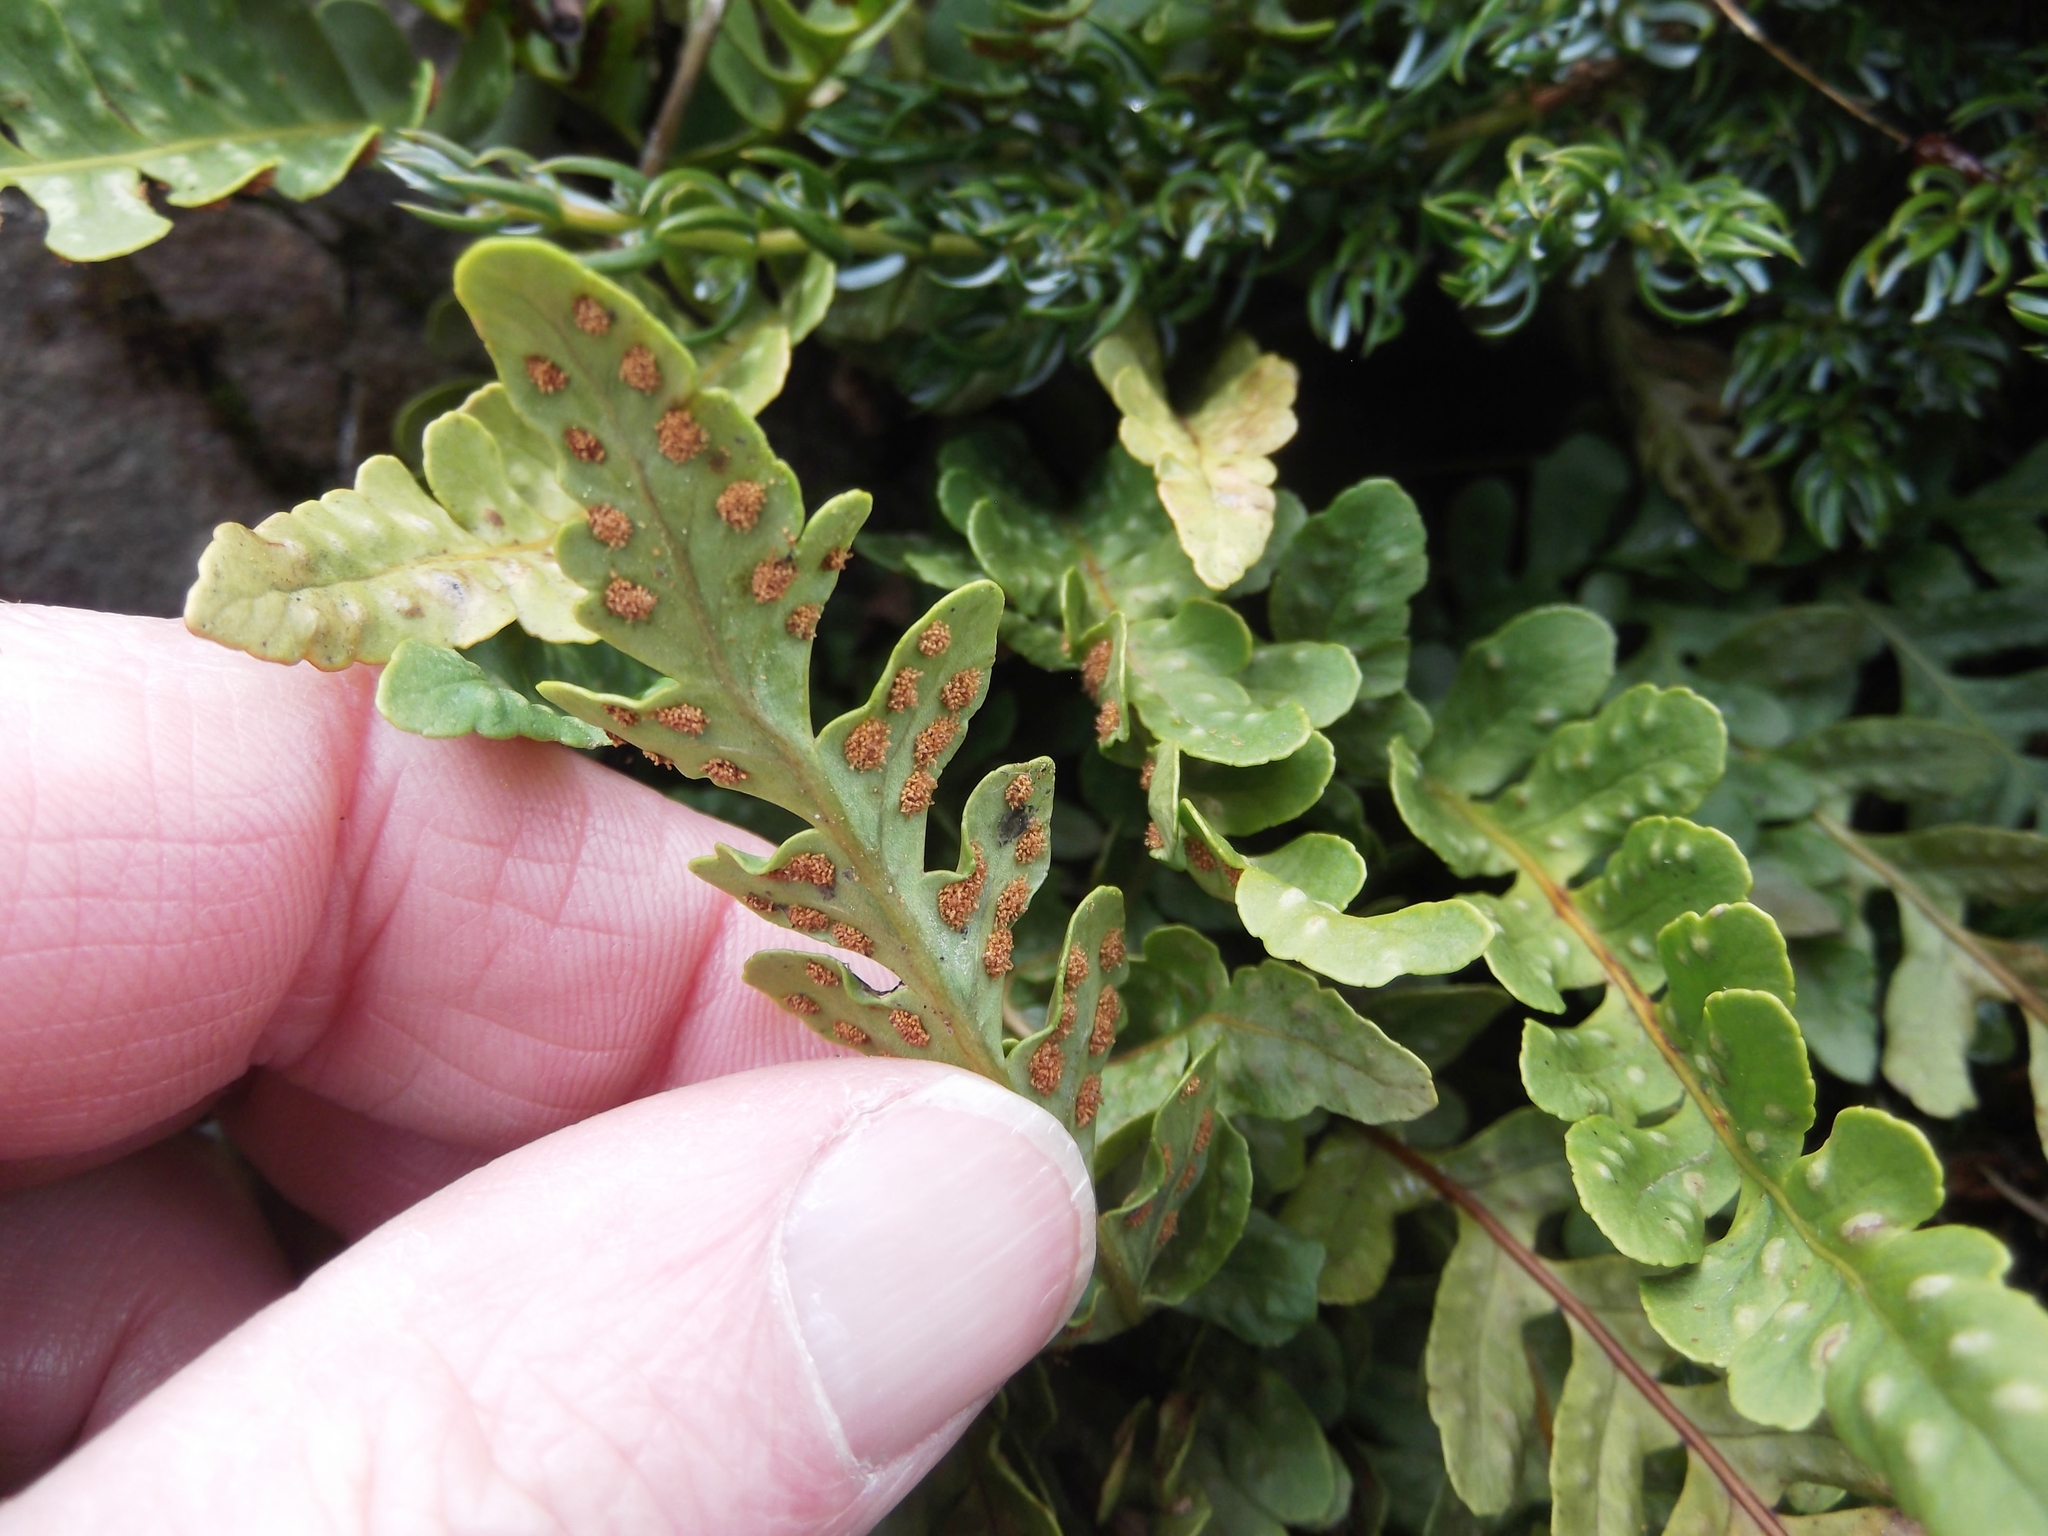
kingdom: Plantae
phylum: Tracheophyta
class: Polypodiopsida
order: Polypodiales
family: Polypodiaceae
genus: Polypodium
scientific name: Polypodium amorphum
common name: Pacific polypody
